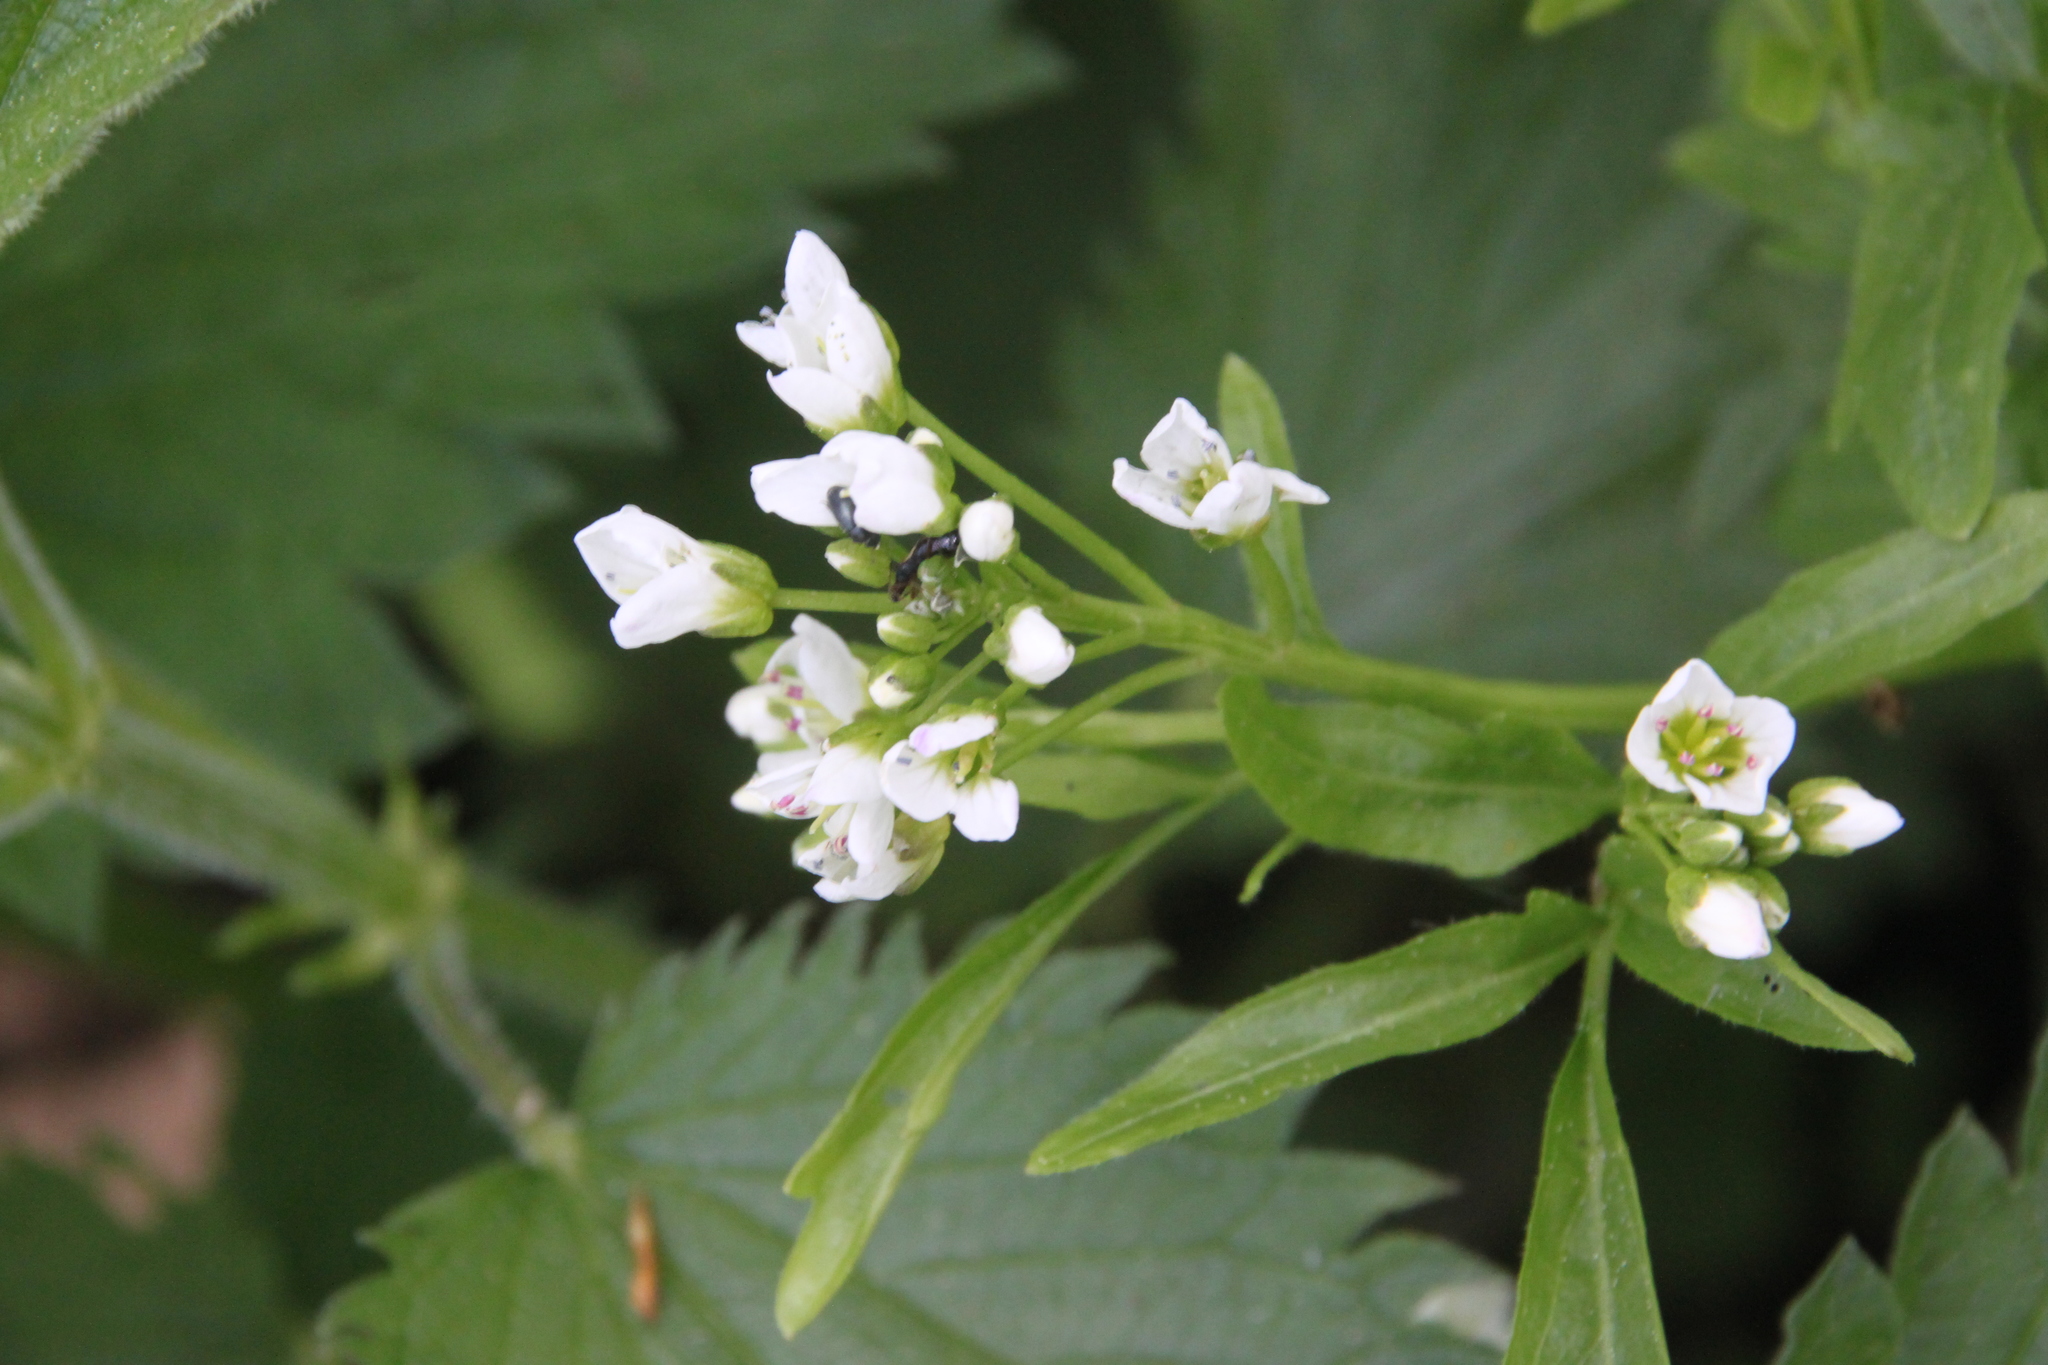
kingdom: Plantae
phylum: Tracheophyta
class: Magnoliopsida
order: Brassicales
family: Brassicaceae
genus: Cardamine
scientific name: Cardamine amara
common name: Large bitter-cress
